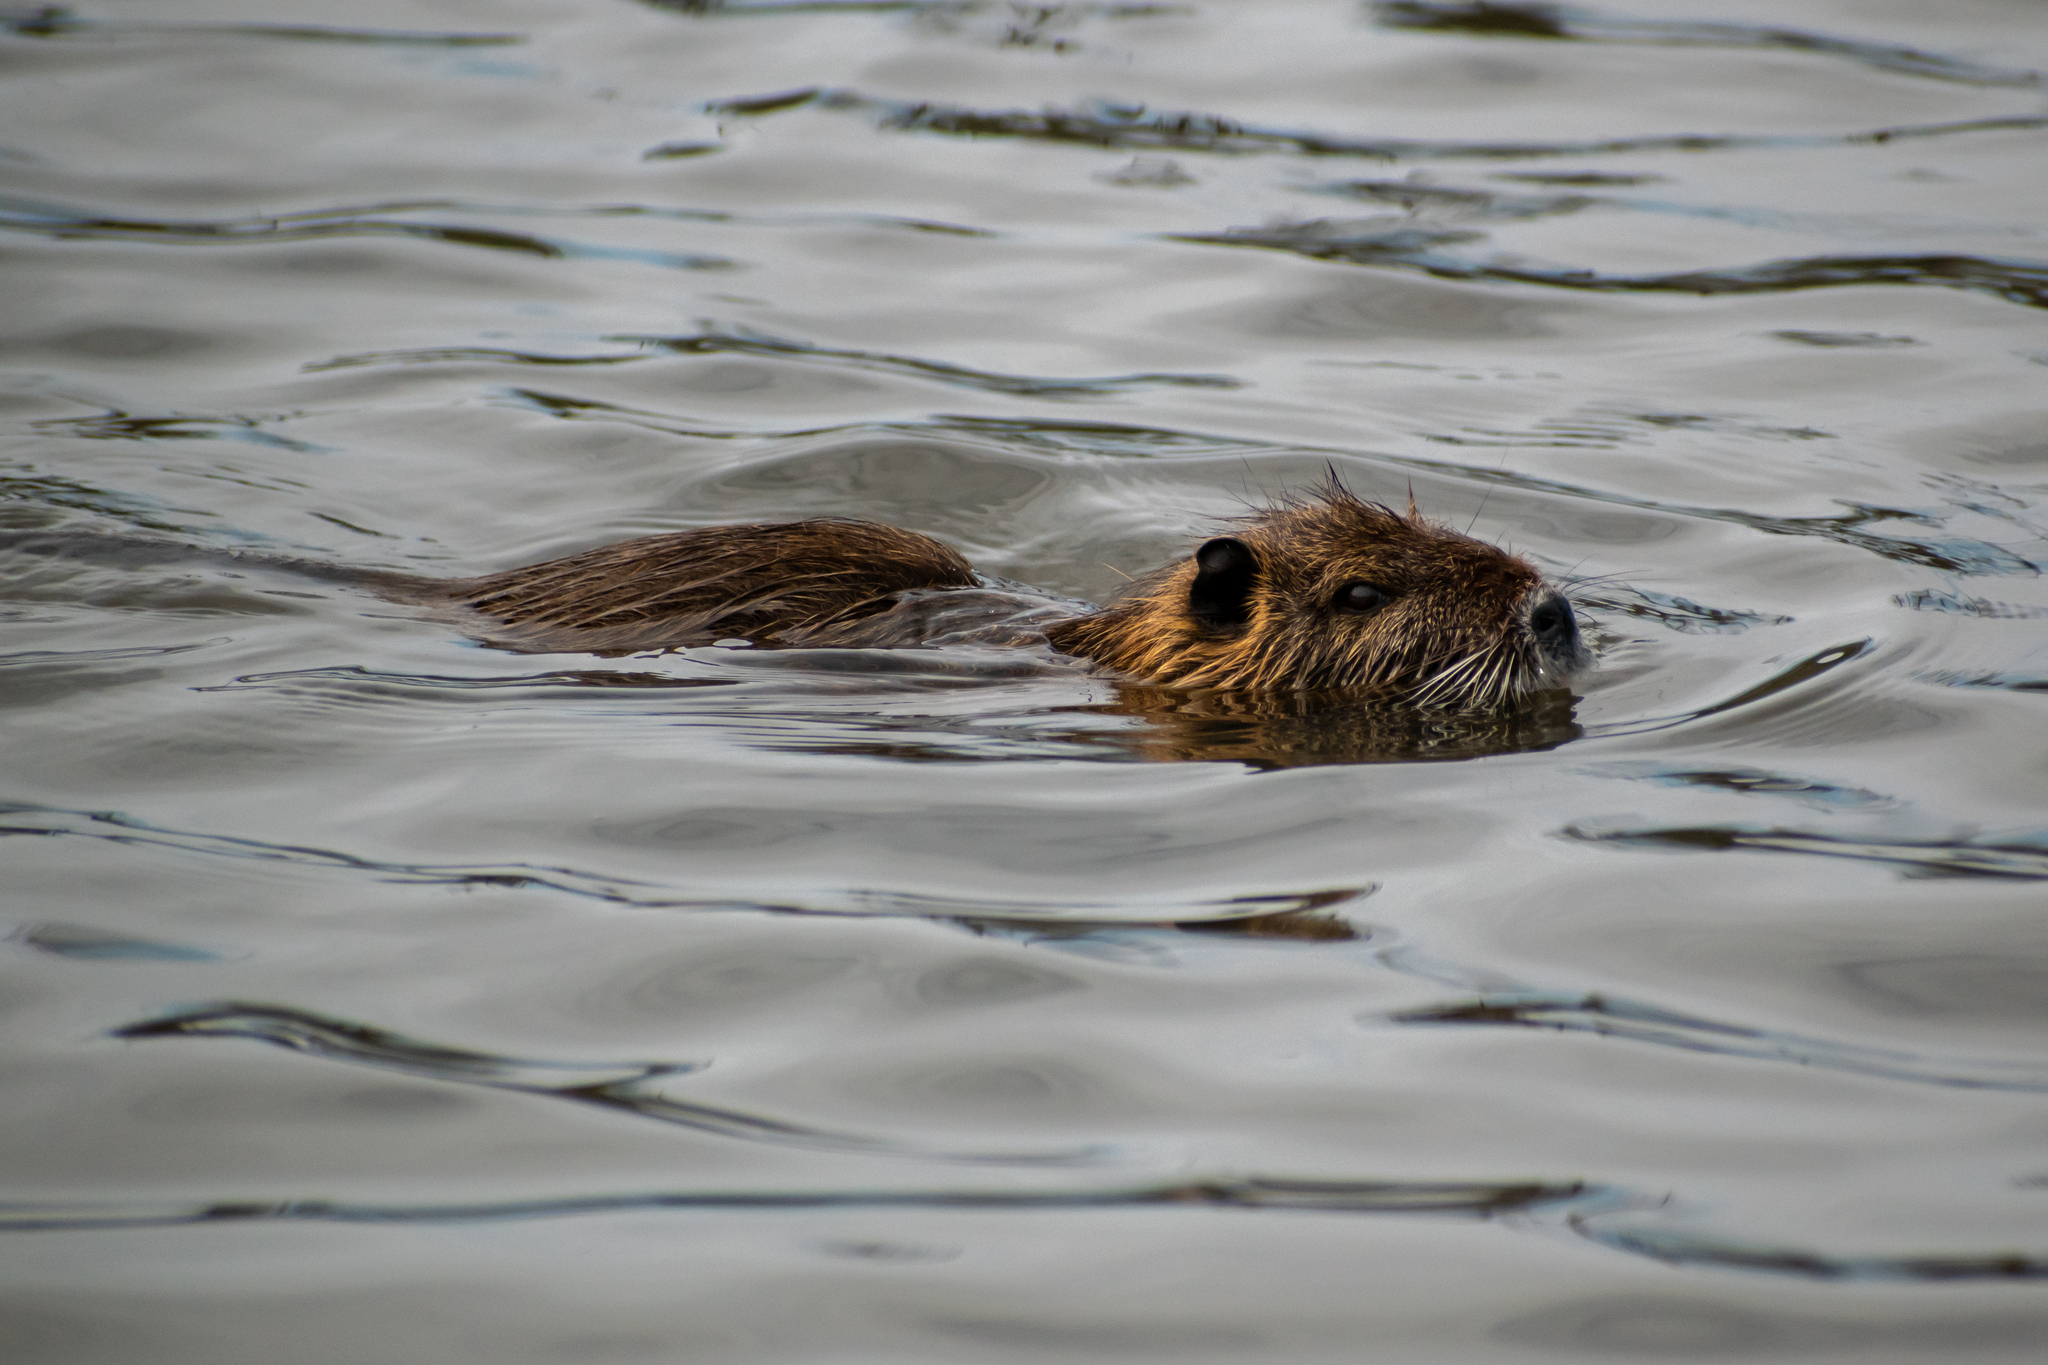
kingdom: Animalia
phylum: Chordata
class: Mammalia
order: Rodentia
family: Myocastoridae
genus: Myocastor
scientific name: Myocastor coypus
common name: Coypu
